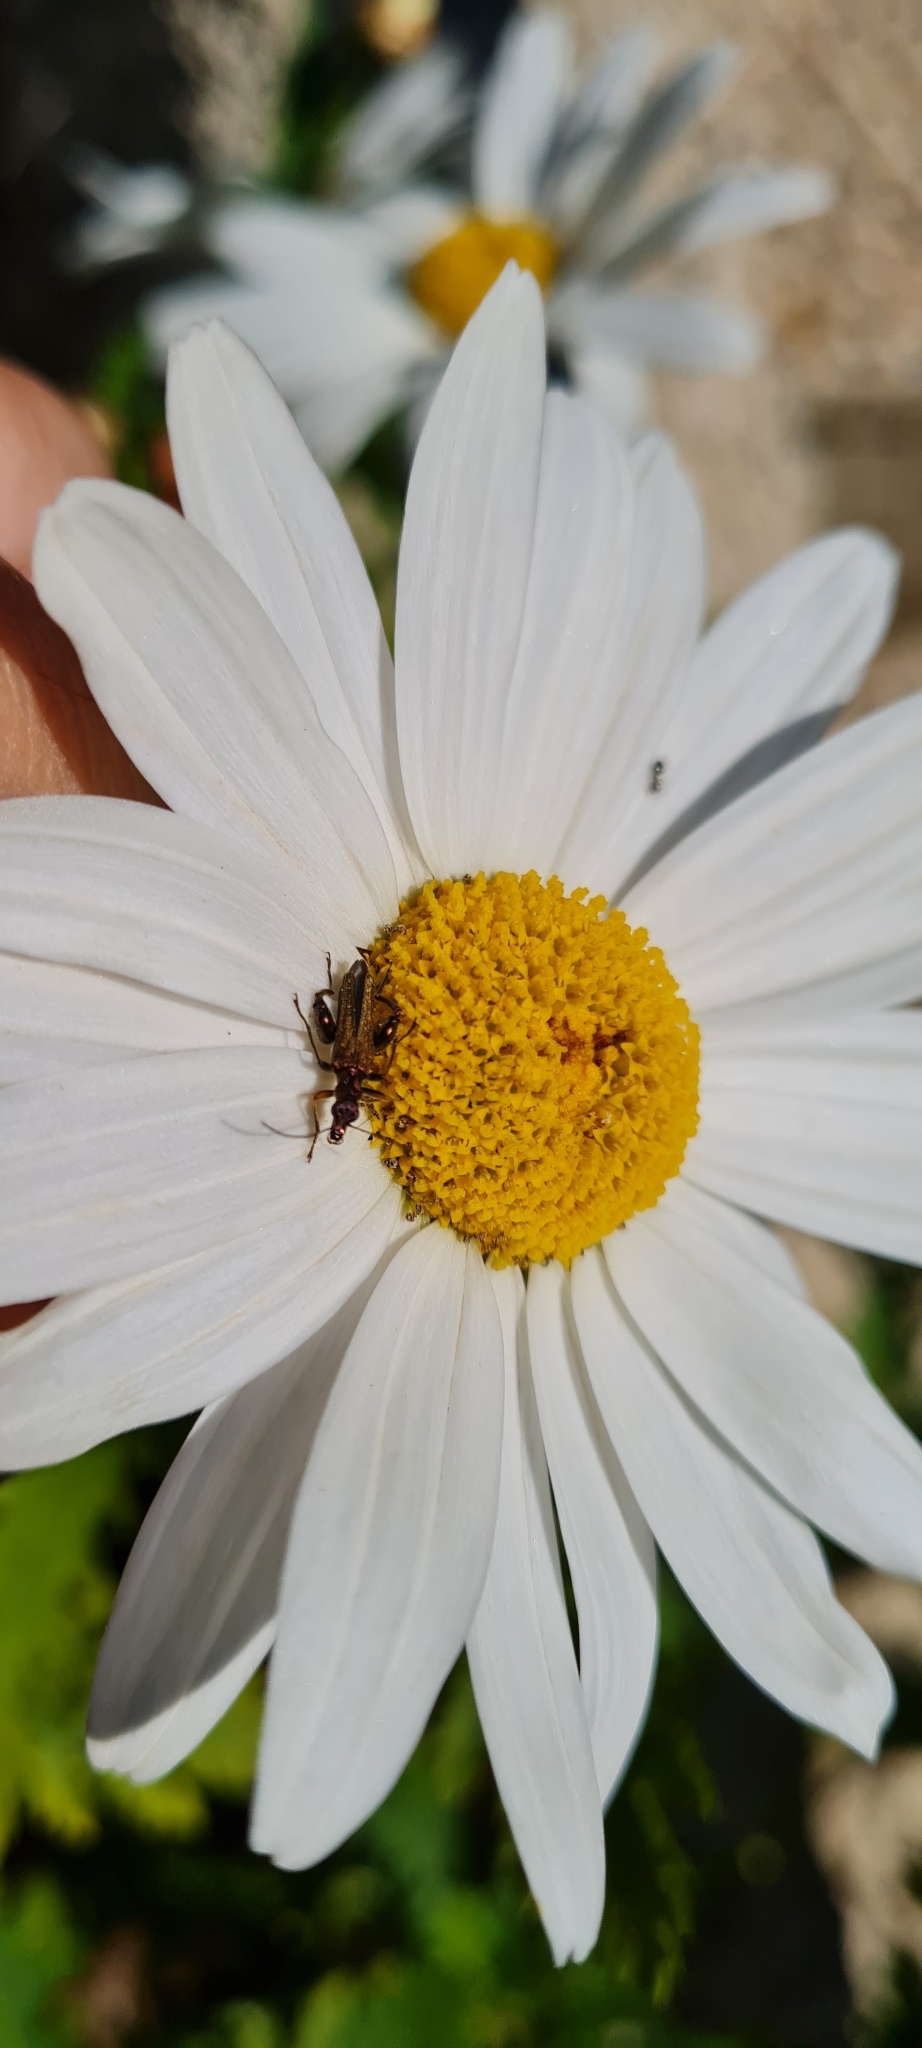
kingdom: Animalia
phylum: Arthropoda
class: Insecta
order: Coleoptera
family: Oedemeridae
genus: Oedemera
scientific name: Oedemera flavipes
